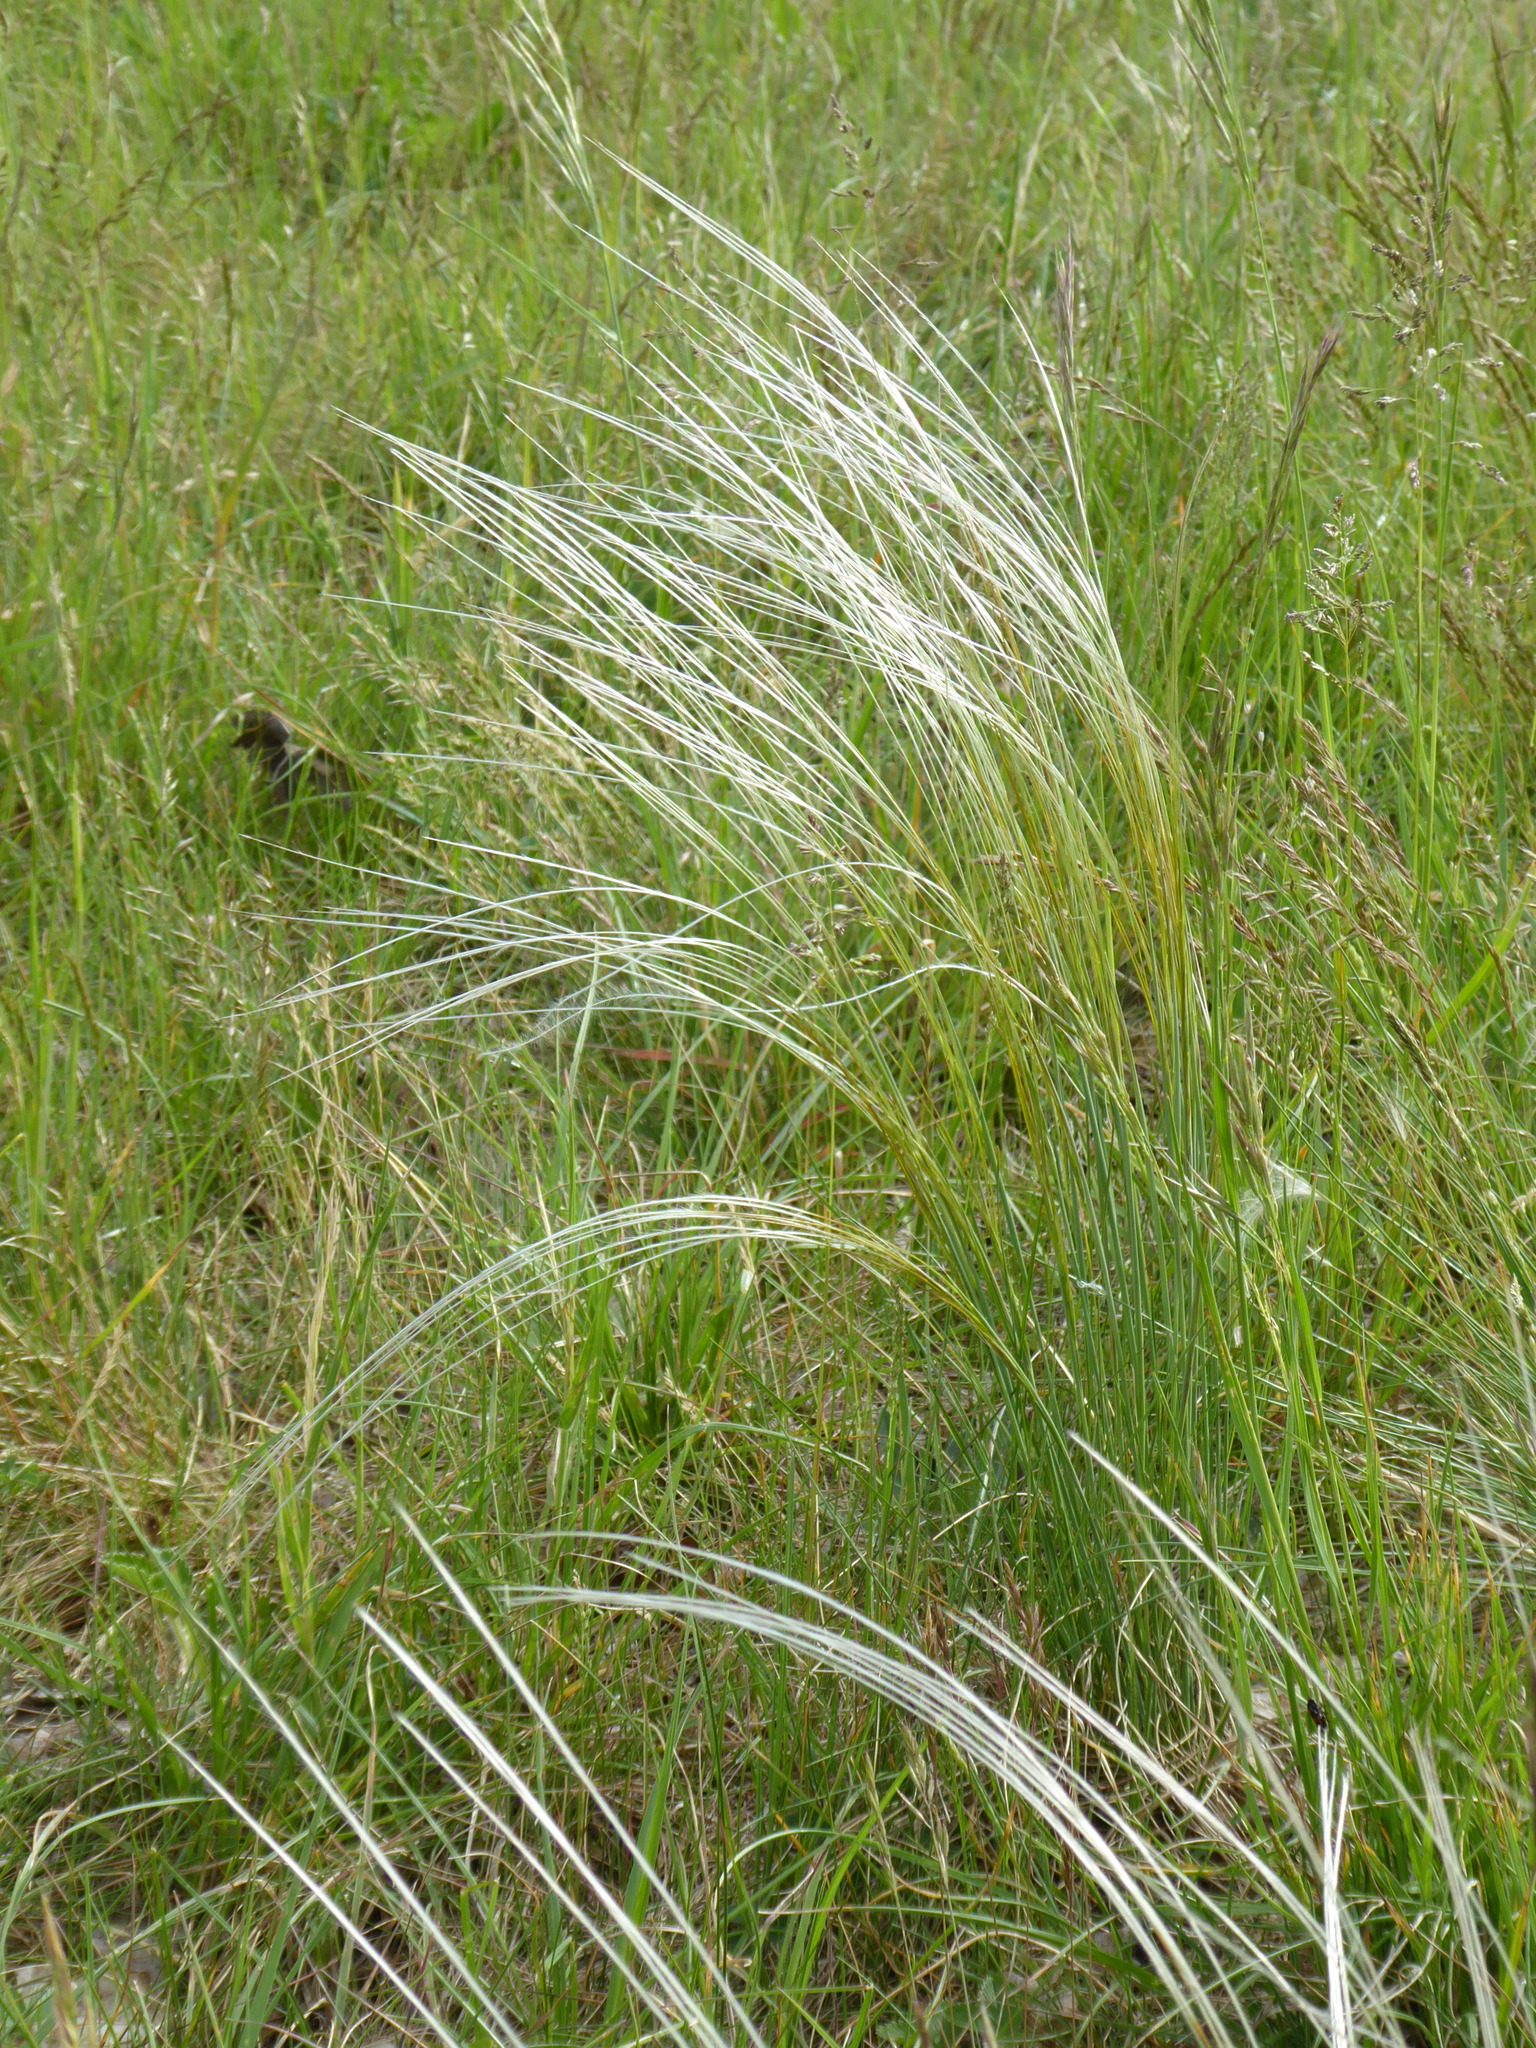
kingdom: Plantae
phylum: Tracheophyta
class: Liliopsida
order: Poales
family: Poaceae
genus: Stipa
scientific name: Stipa pennata
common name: European feather grass
